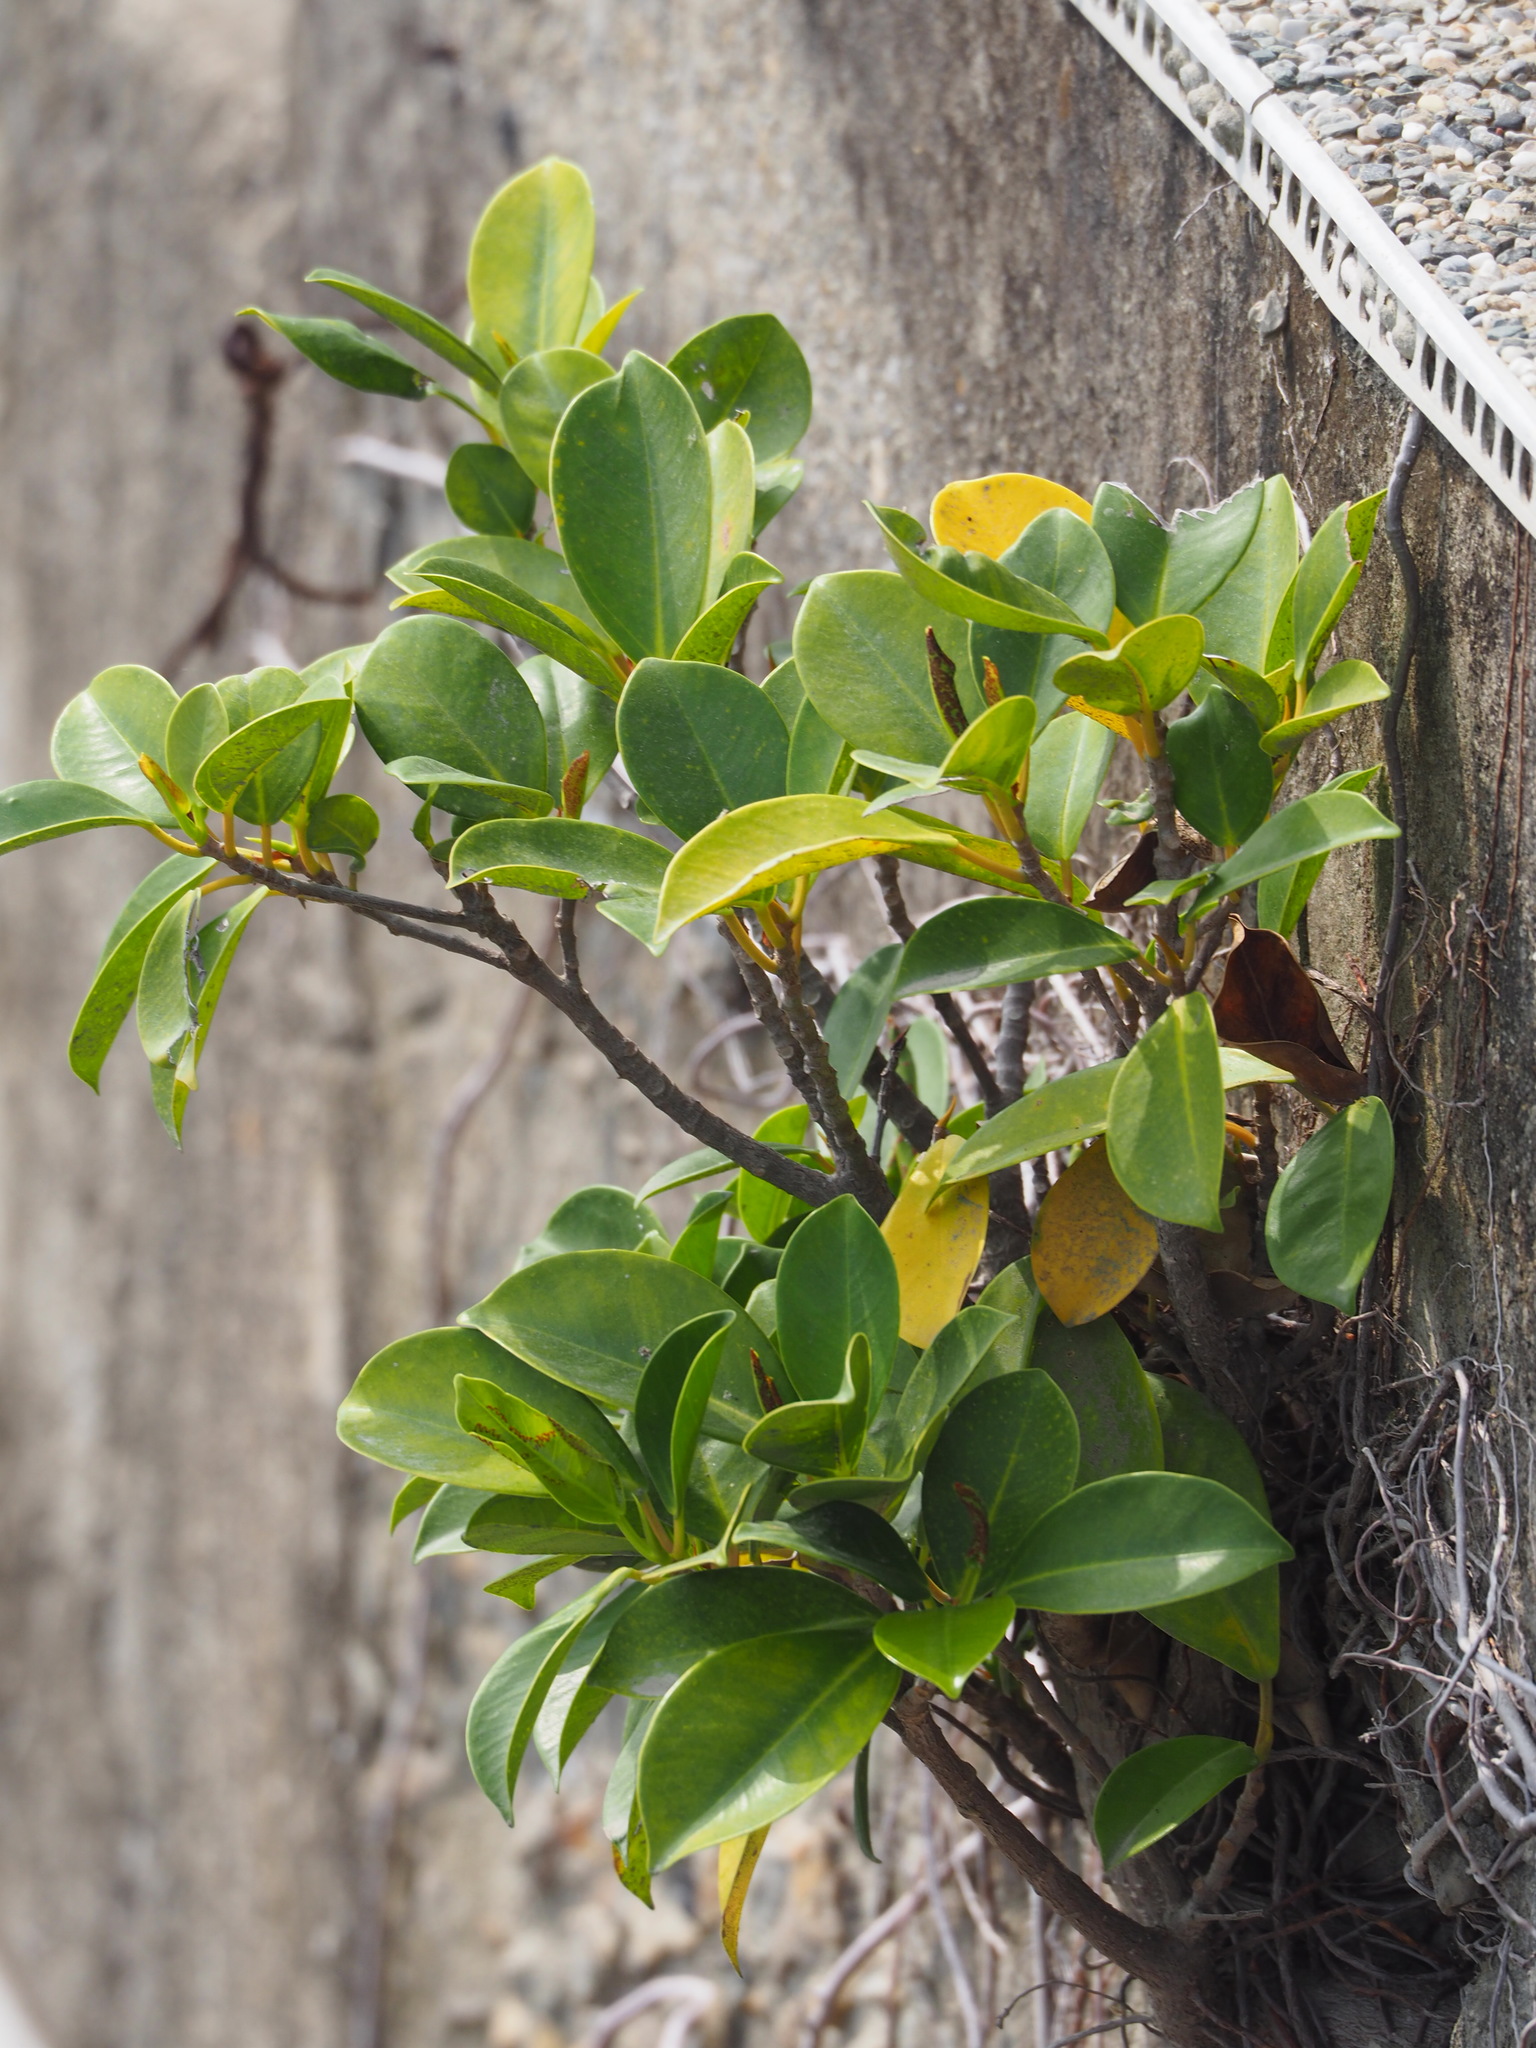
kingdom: Plantae
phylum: Tracheophyta
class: Magnoliopsida
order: Rosales
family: Moraceae
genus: Ficus
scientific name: Ficus microcarpa
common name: Chinese banyan
